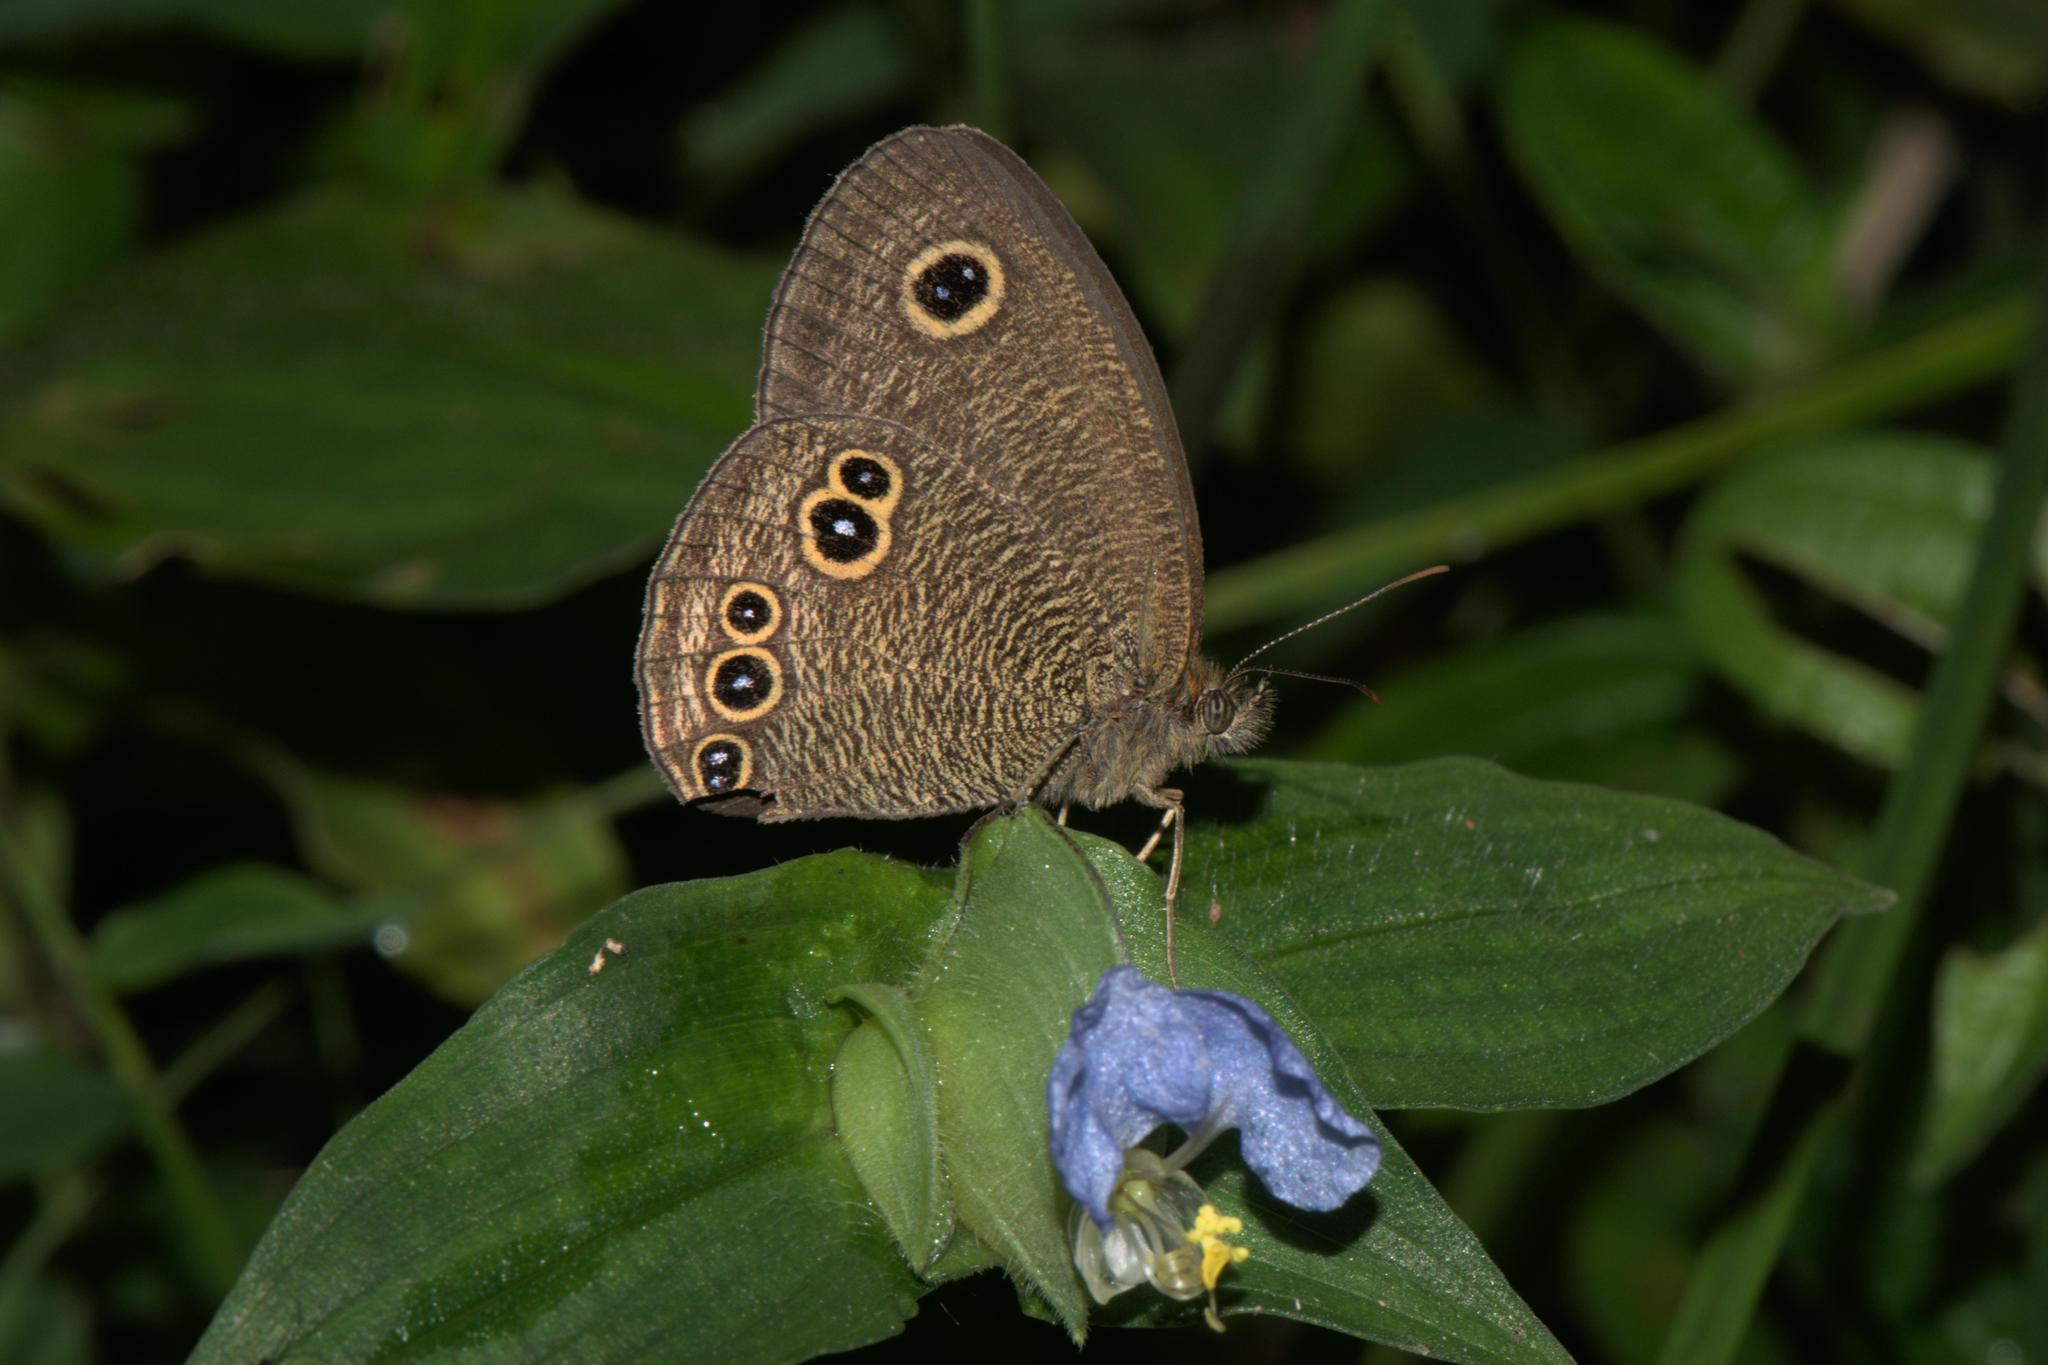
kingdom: Animalia
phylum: Arthropoda
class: Insecta
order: Lepidoptera
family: Nymphalidae
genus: Ypthima
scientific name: Ypthima nikaea
